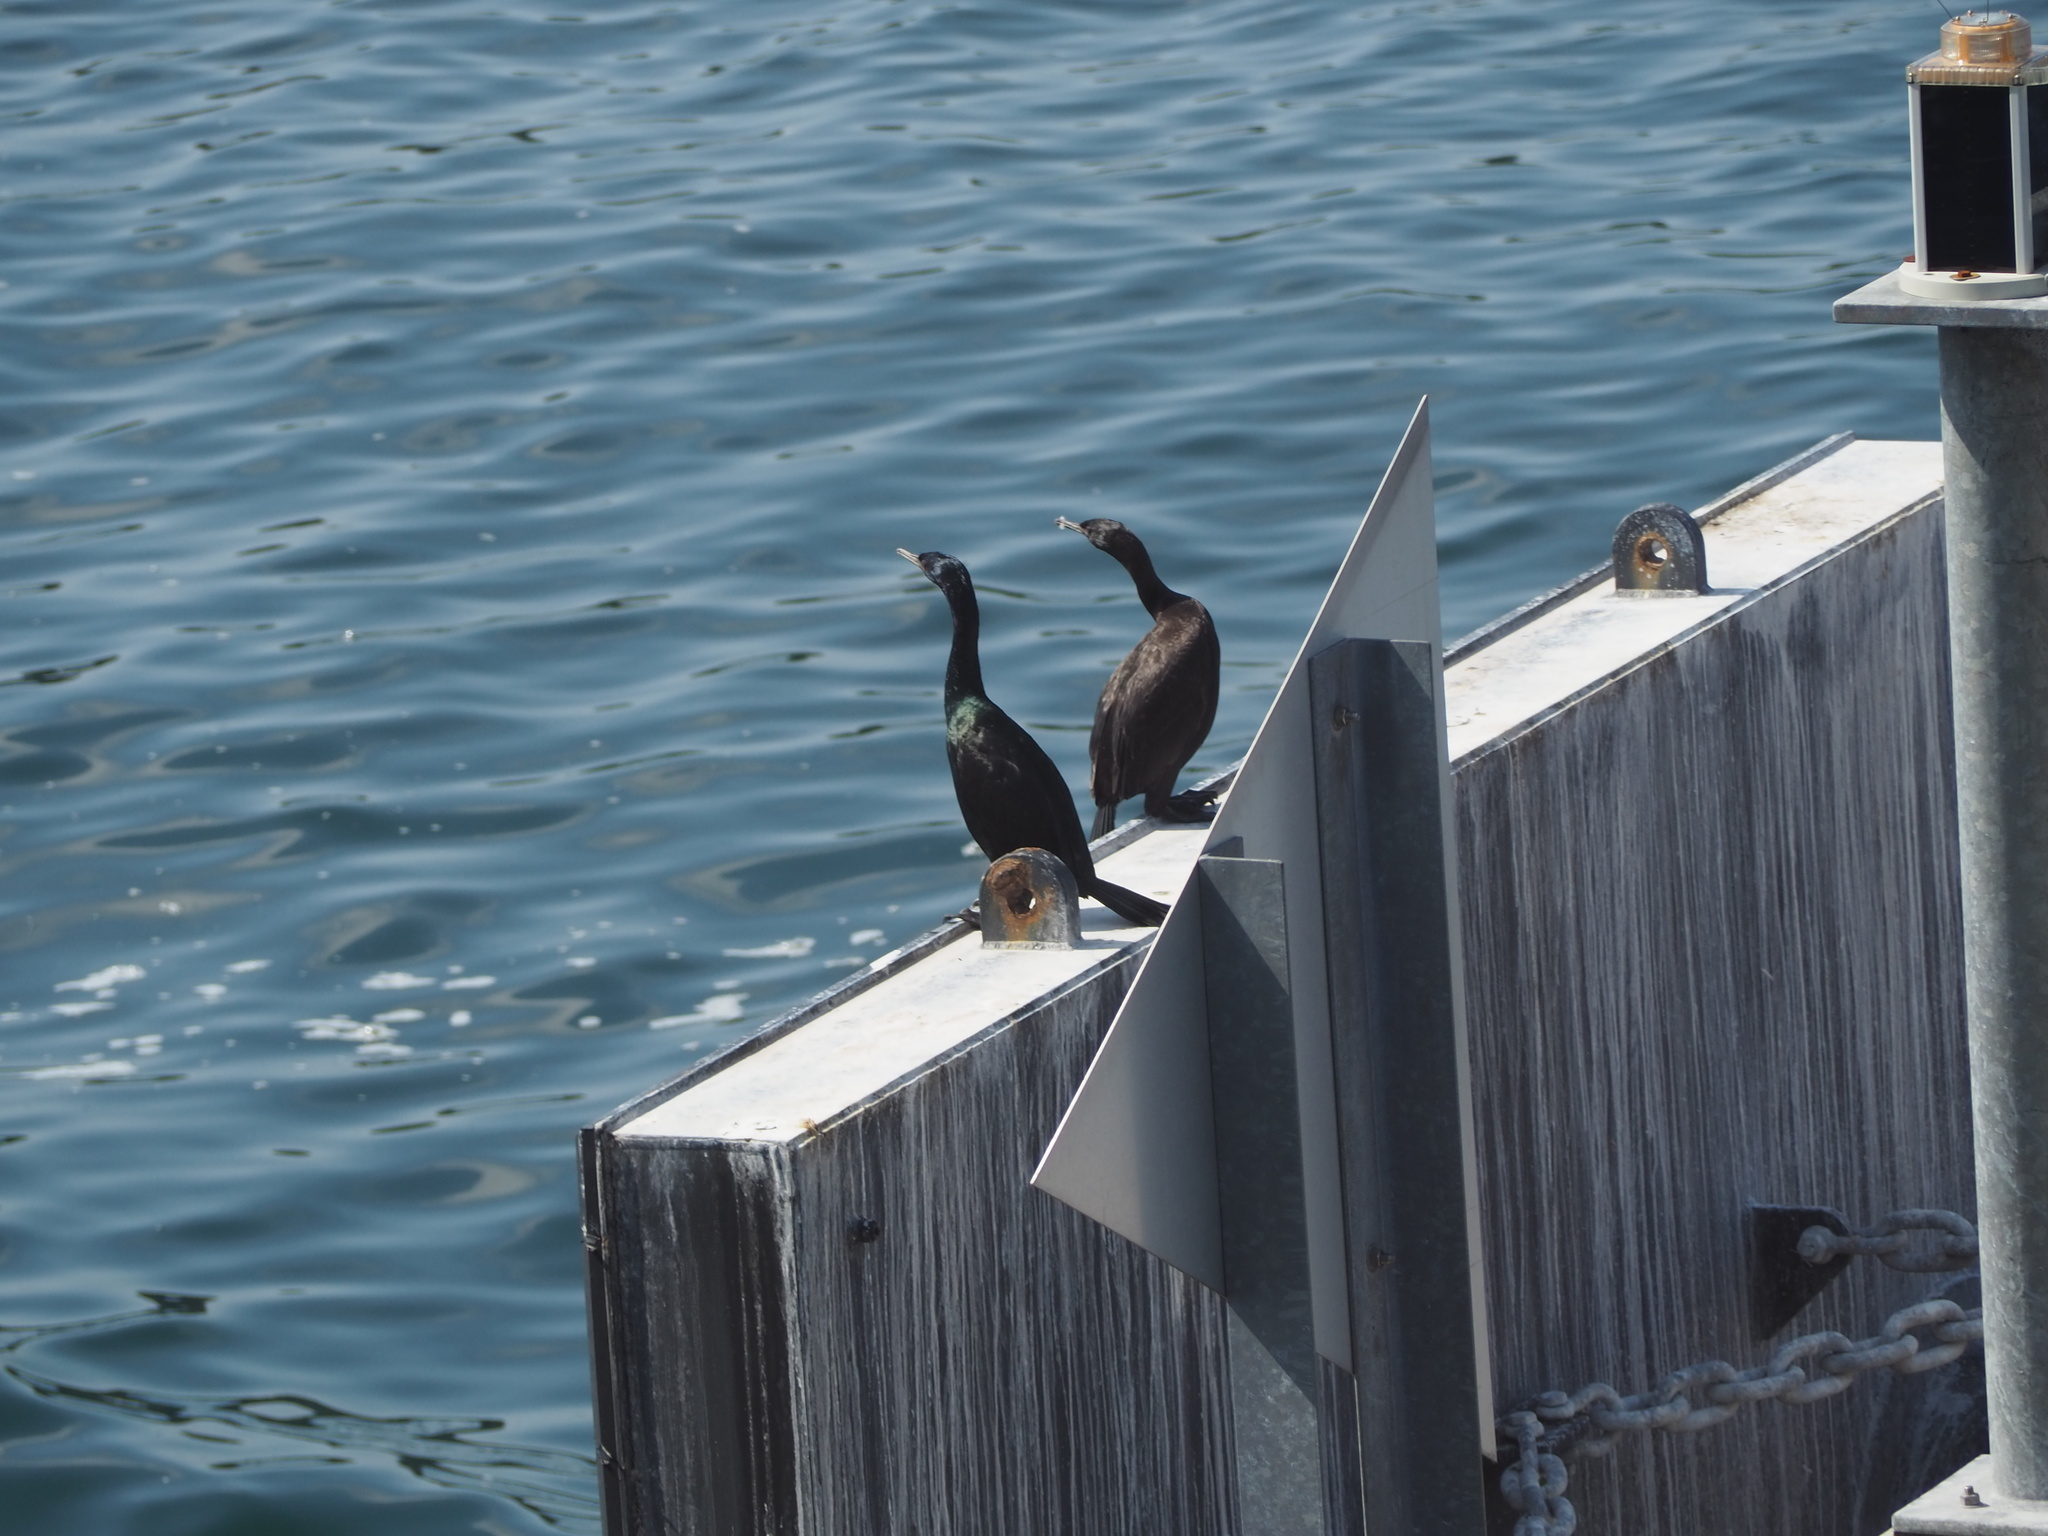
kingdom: Animalia
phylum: Chordata
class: Aves
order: Suliformes
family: Phalacrocoracidae
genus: Phalacrocorax
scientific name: Phalacrocorax pelagicus
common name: Pelagic cormorant
